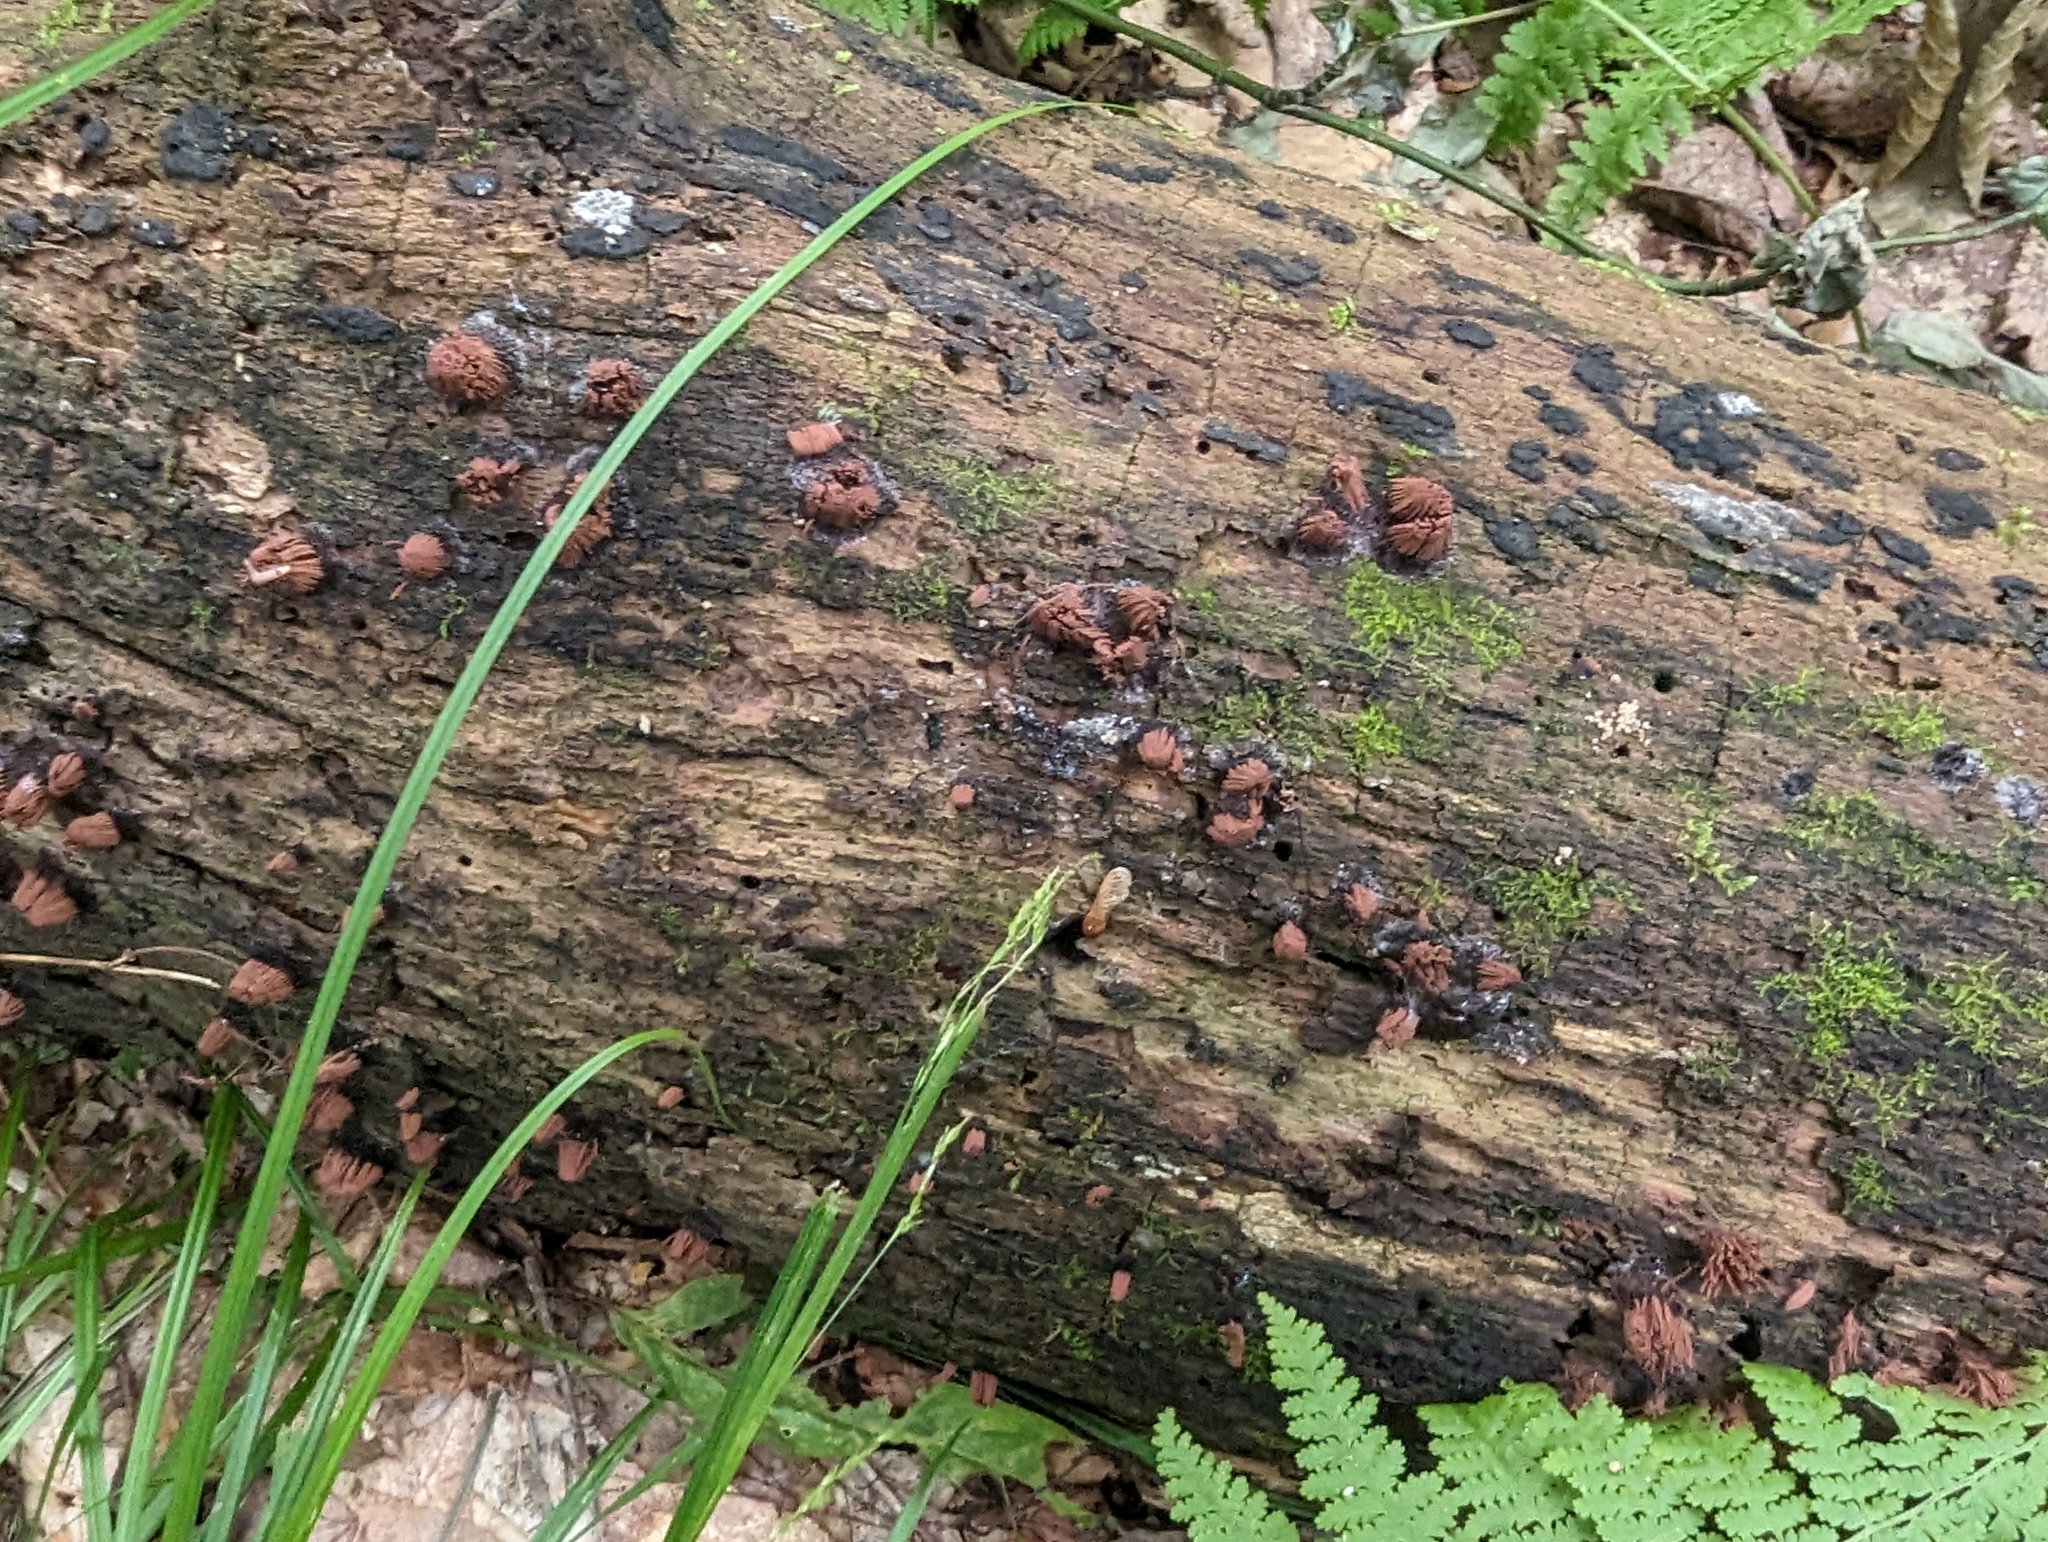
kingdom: Protozoa
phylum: Mycetozoa
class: Myxomycetes
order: Stemonitidales
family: Stemonitidaceae
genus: Stemonitis
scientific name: Stemonitis
